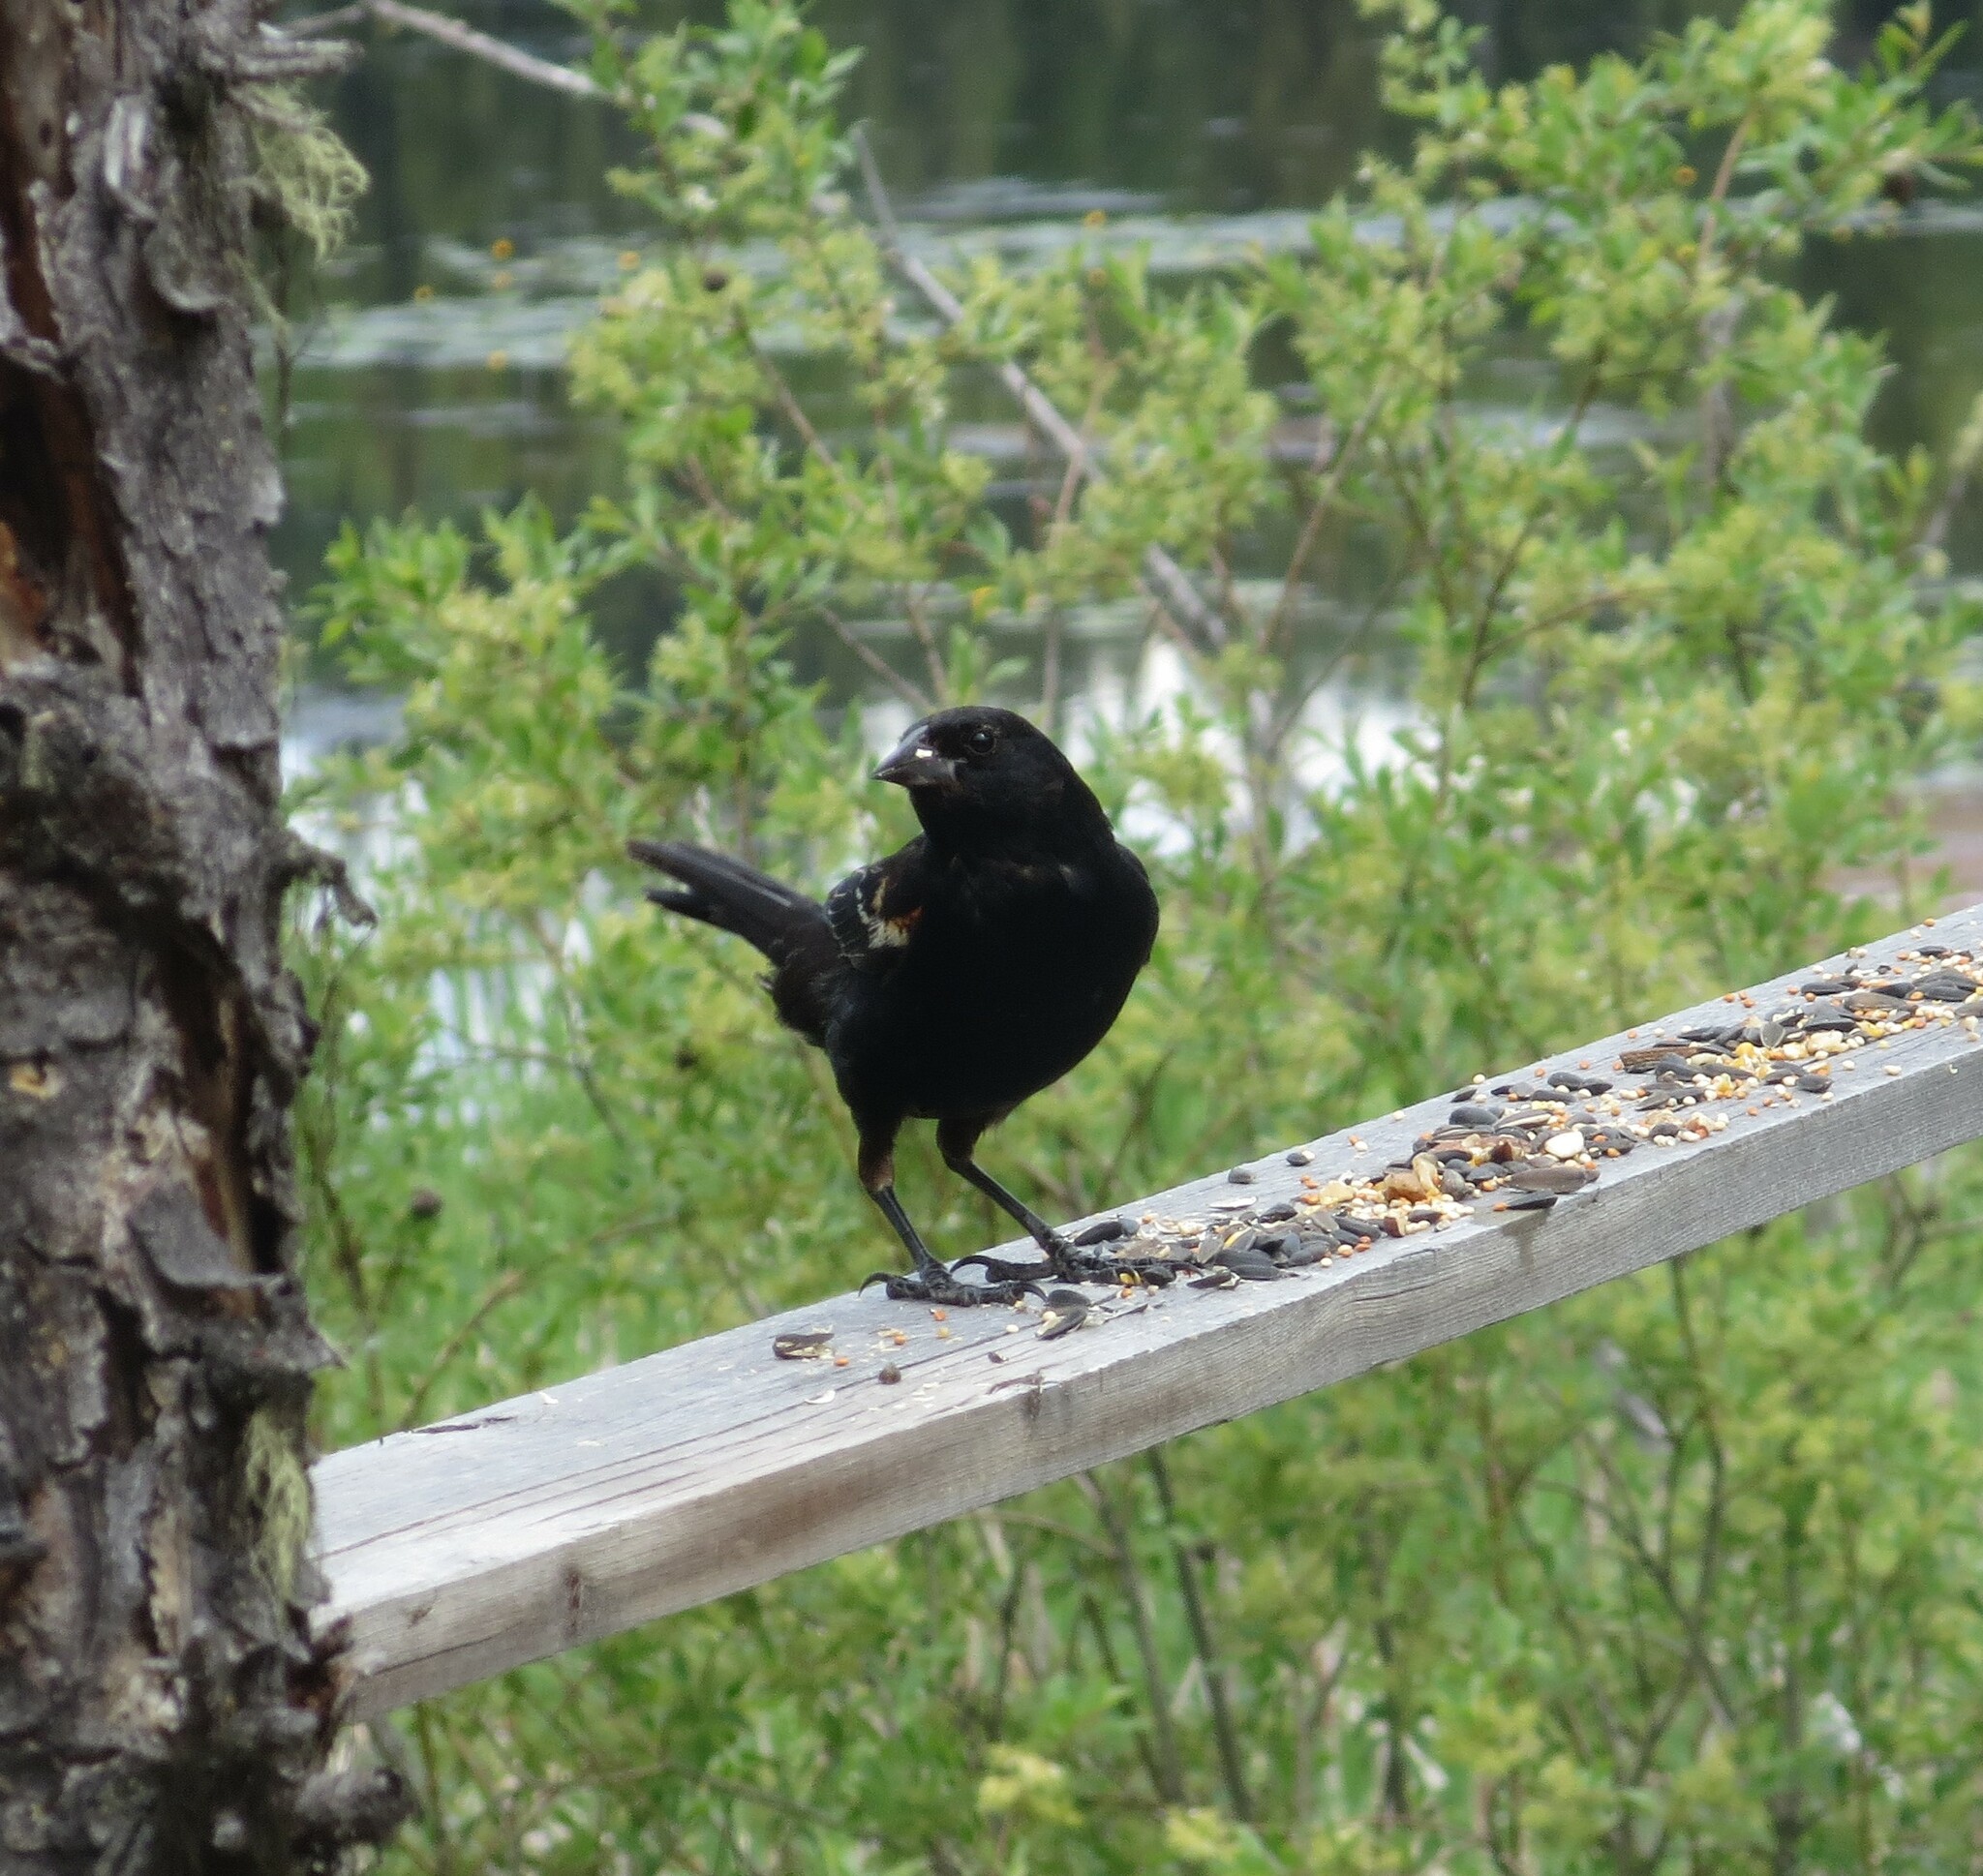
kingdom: Animalia
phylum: Chordata
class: Aves
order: Passeriformes
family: Icteridae
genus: Agelaius
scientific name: Agelaius phoeniceus
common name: Red-winged blackbird
